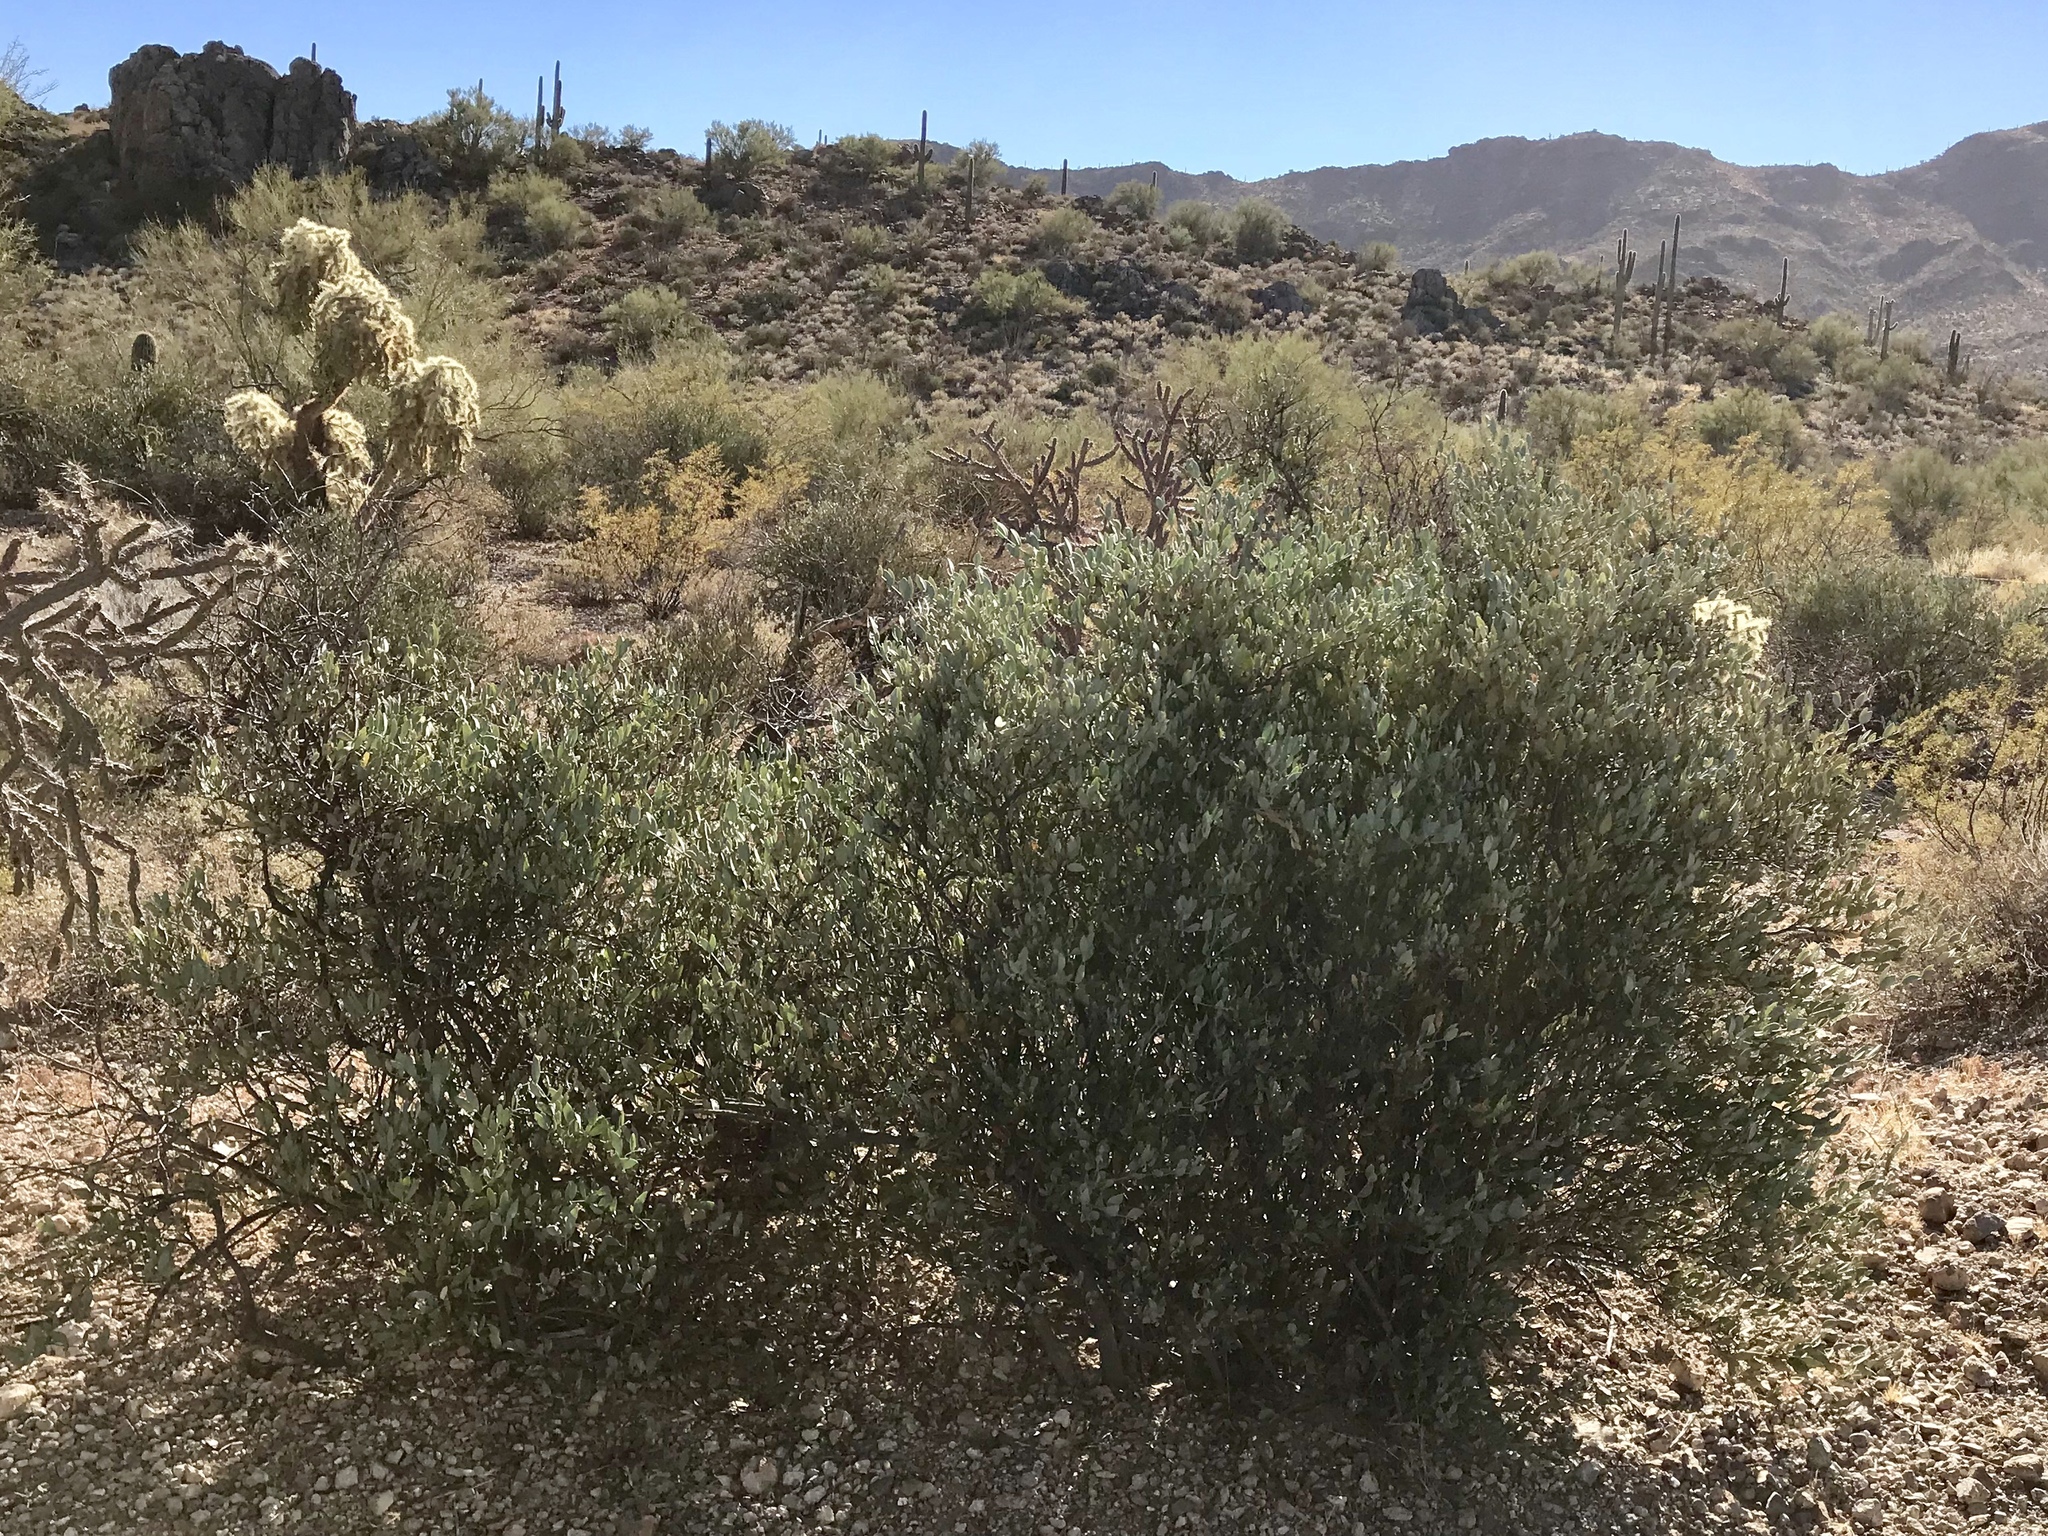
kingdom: Plantae
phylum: Tracheophyta
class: Magnoliopsida
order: Caryophyllales
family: Simmondsiaceae
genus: Simmondsia
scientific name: Simmondsia chinensis
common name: Jojoba
